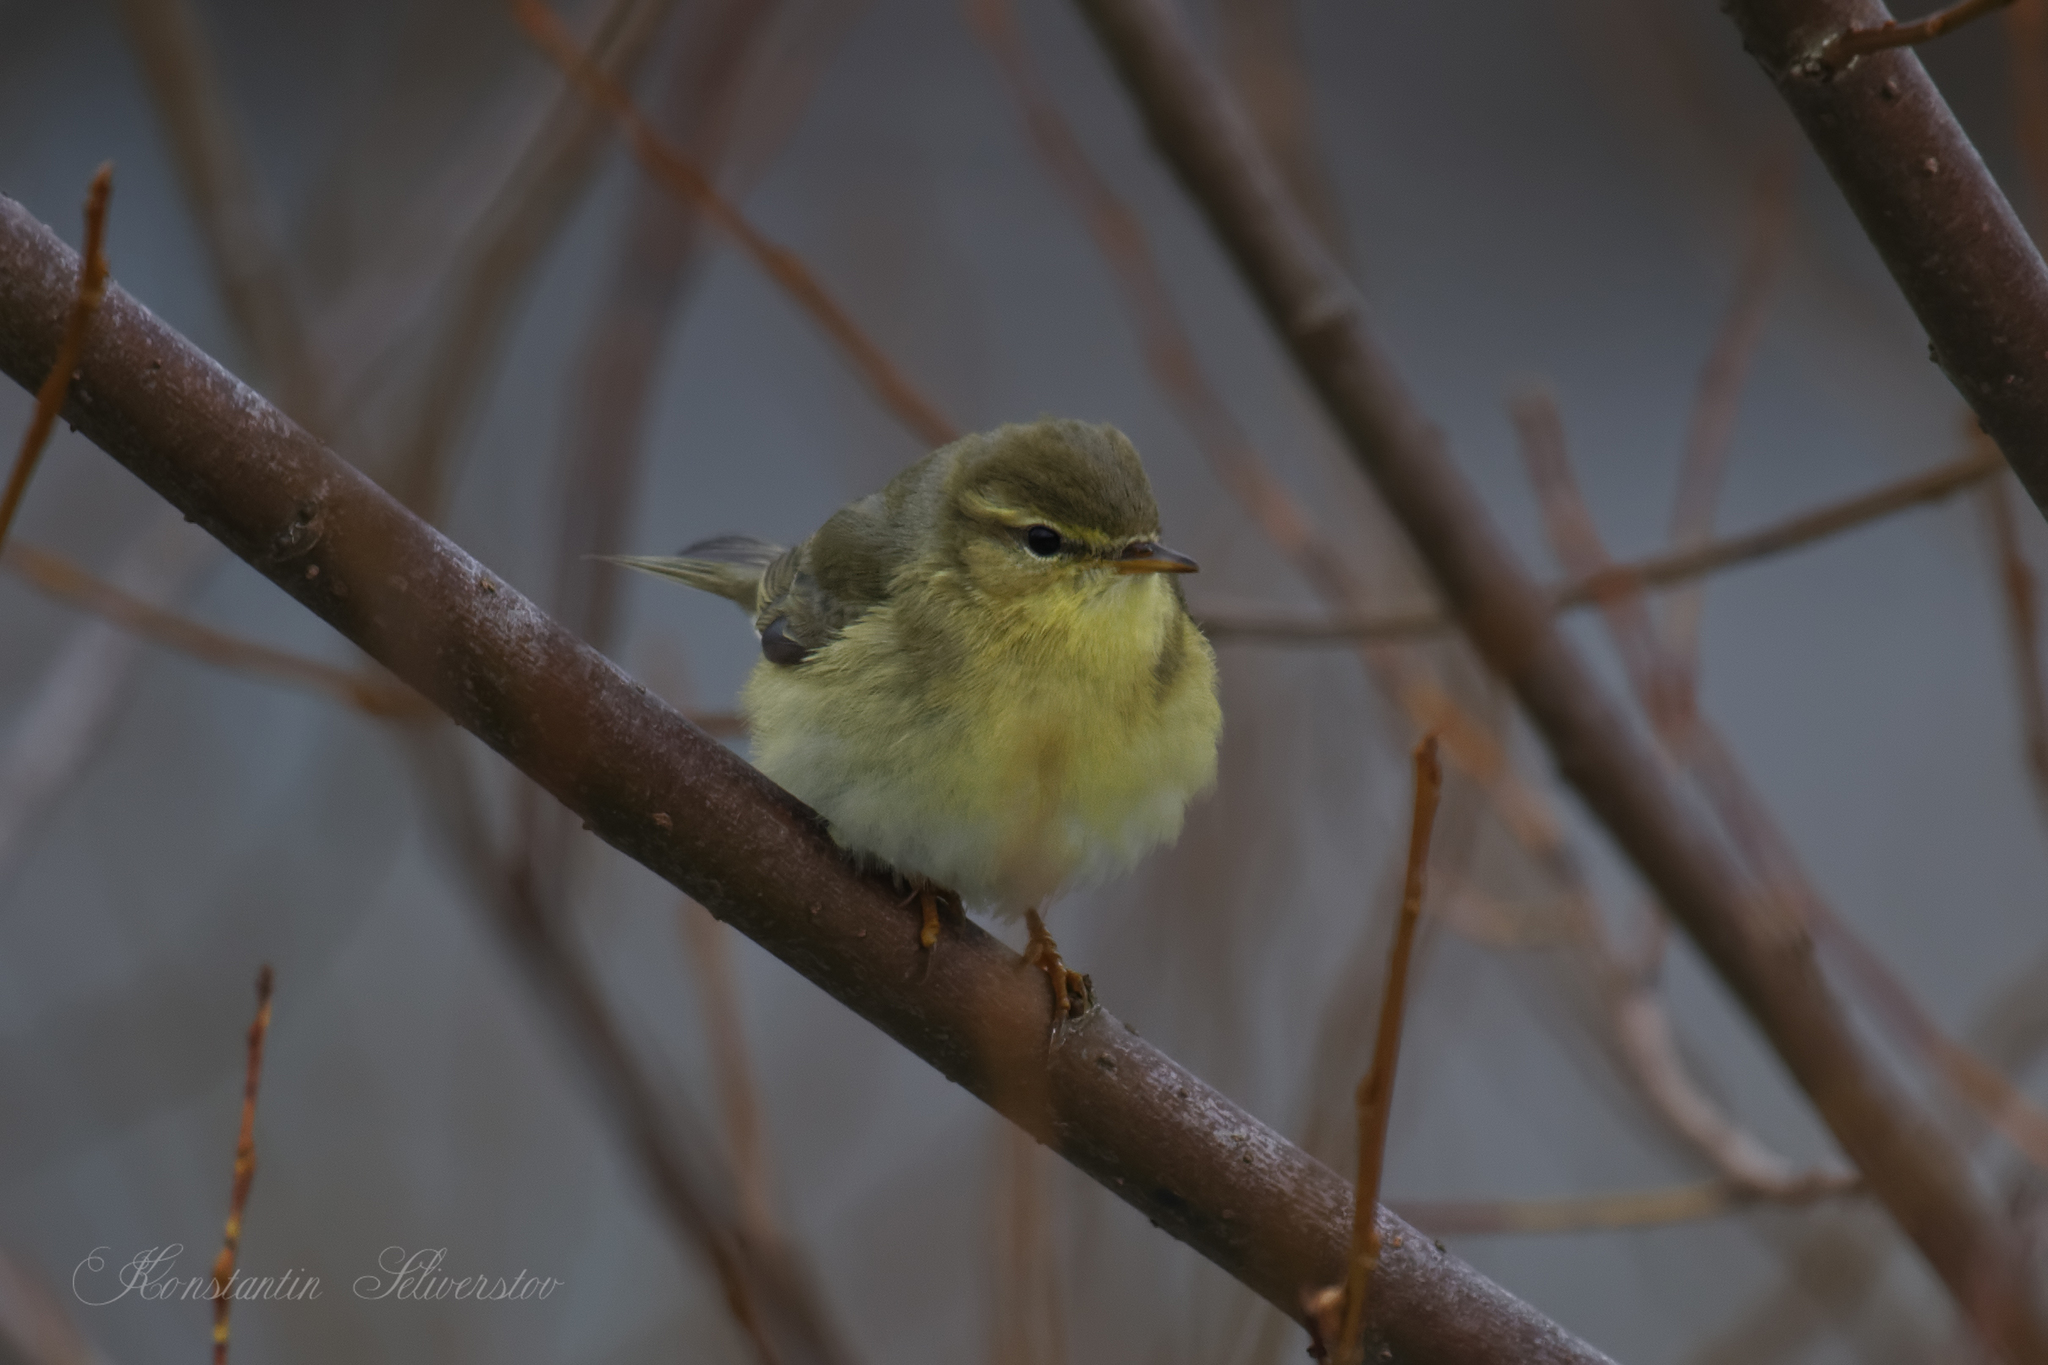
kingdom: Animalia
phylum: Chordata
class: Aves
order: Passeriformes
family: Phylloscopidae
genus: Phylloscopus
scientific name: Phylloscopus trochilus
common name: Willow warbler
